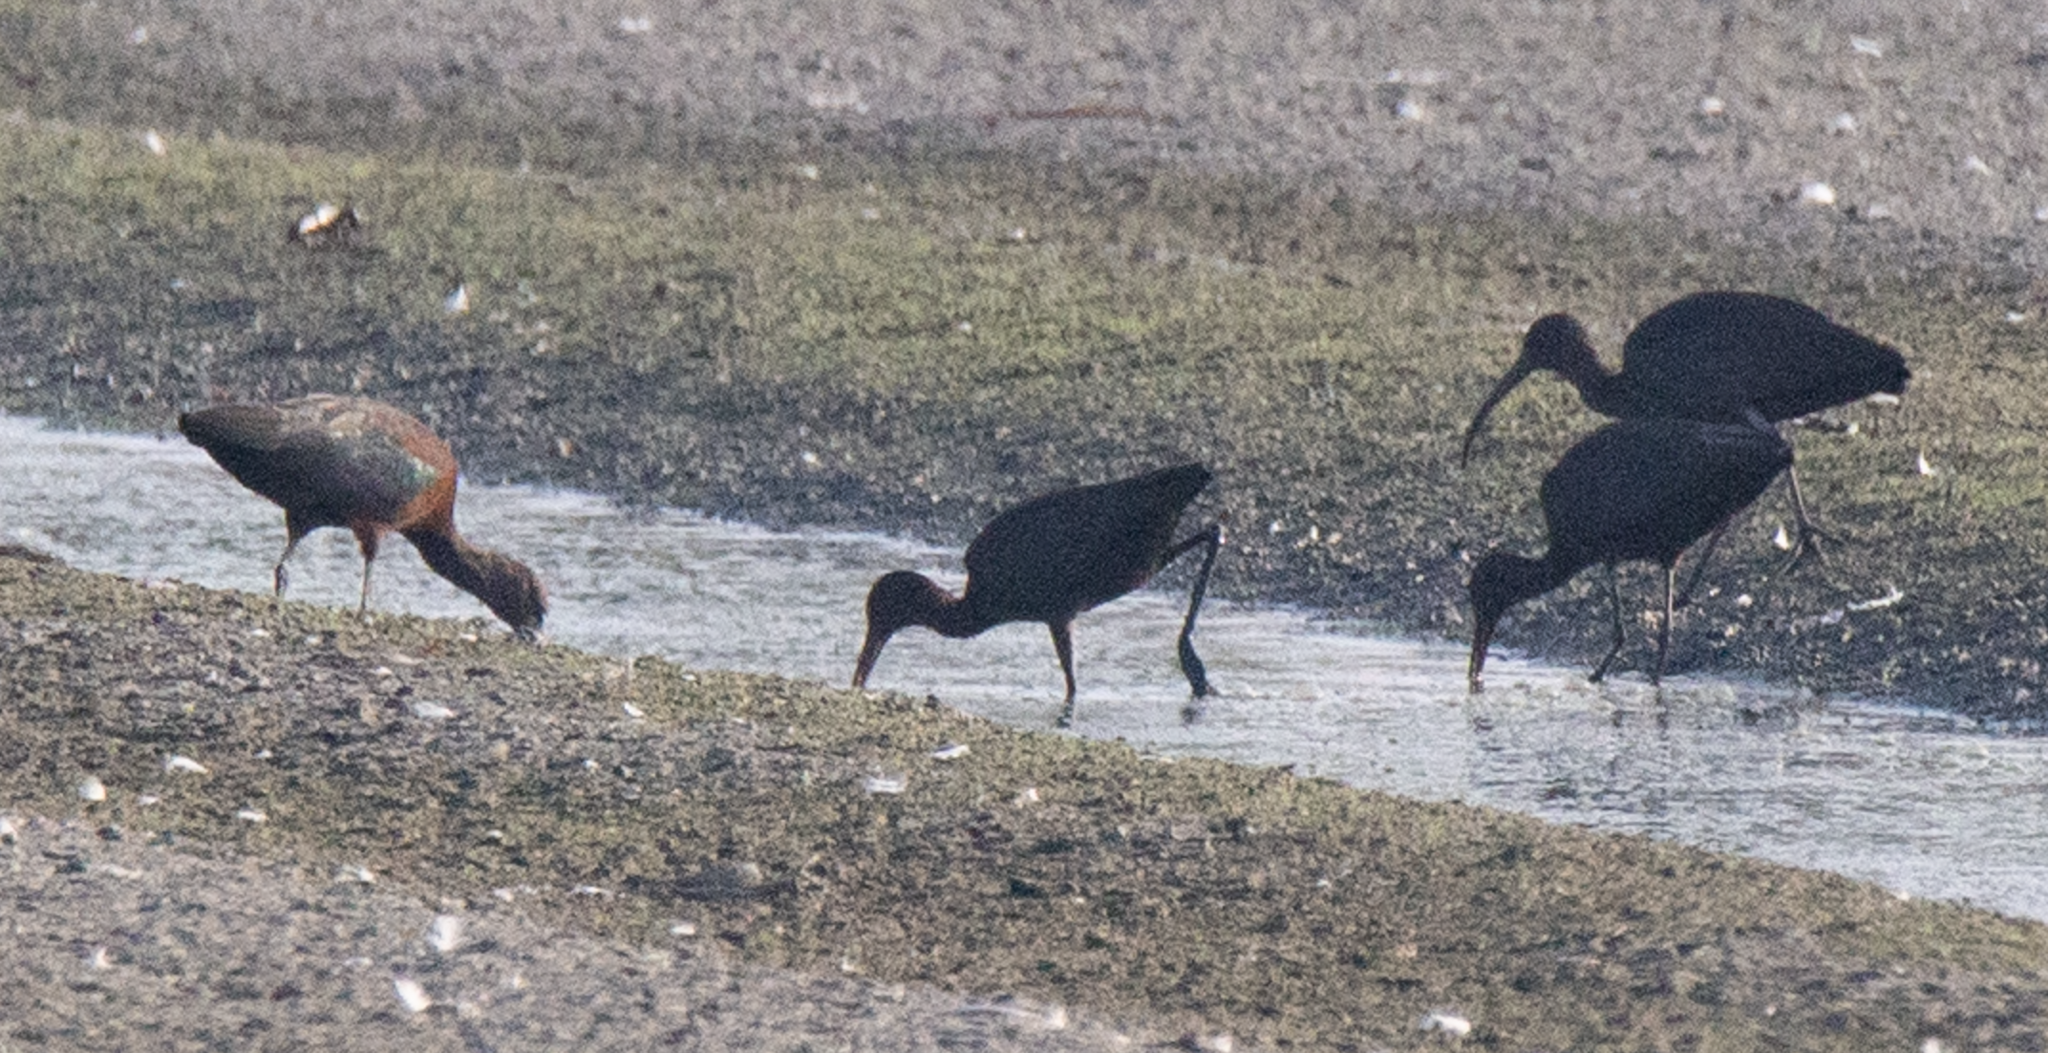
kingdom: Animalia
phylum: Chordata
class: Aves
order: Pelecaniformes
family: Threskiornithidae
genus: Plegadis
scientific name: Plegadis falcinellus
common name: Glossy ibis
